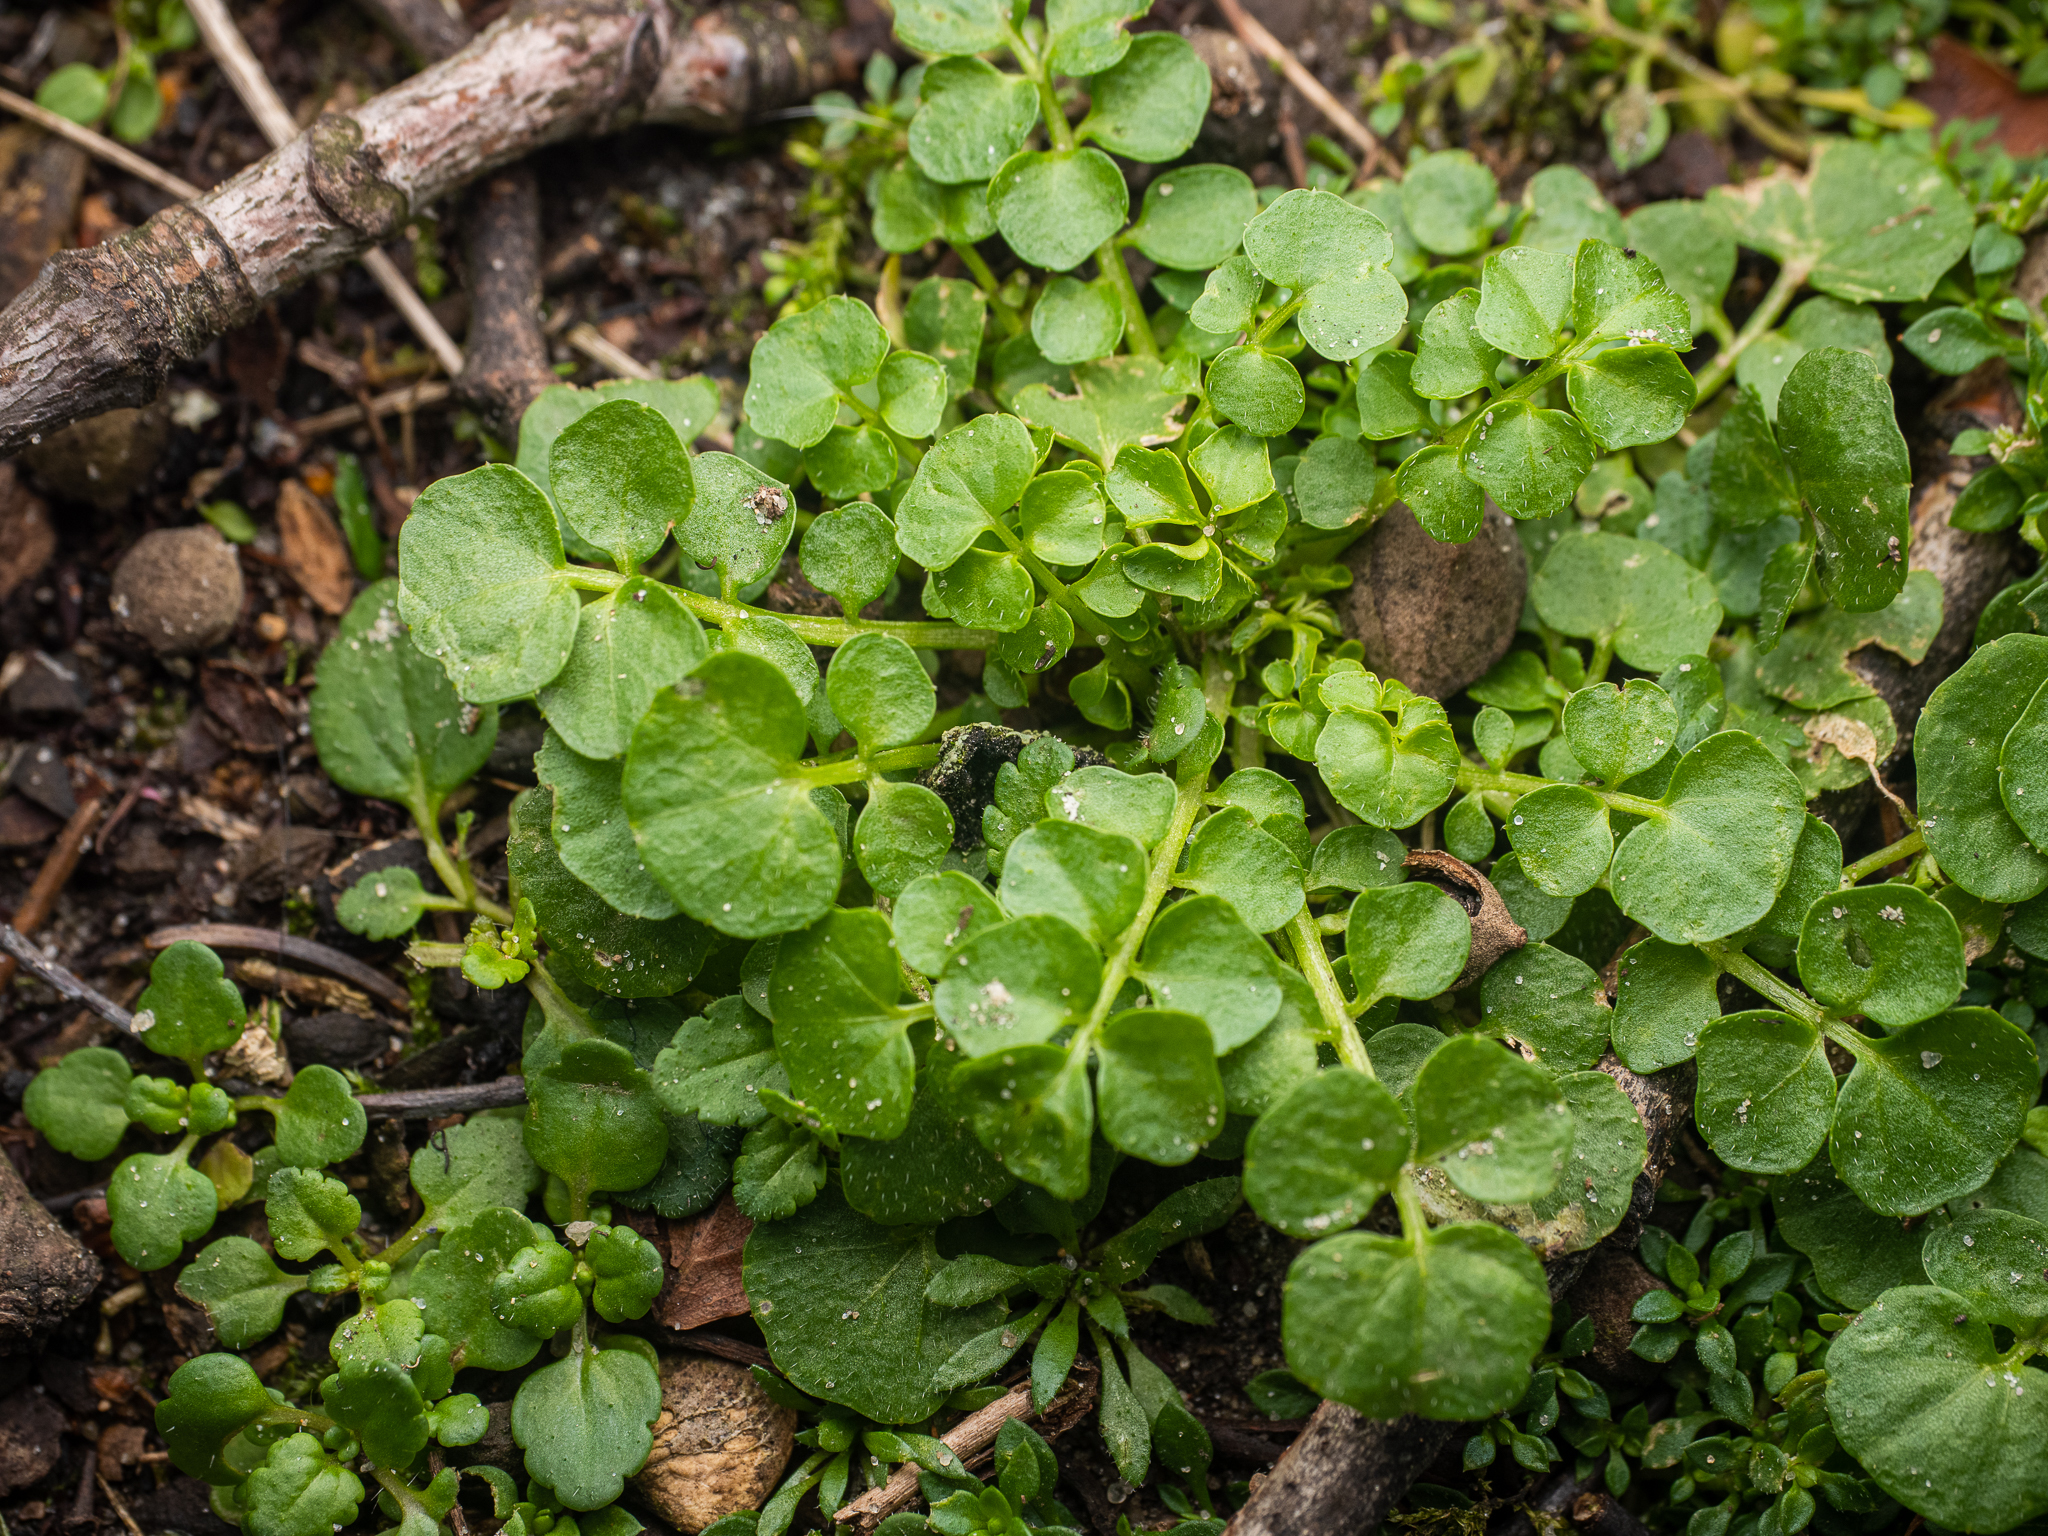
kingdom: Plantae
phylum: Tracheophyta
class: Magnoliopsida
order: Brassicales
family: Brassicaceae
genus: Cardamine
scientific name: Cardamine hirsuta
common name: Hairy bittercress
